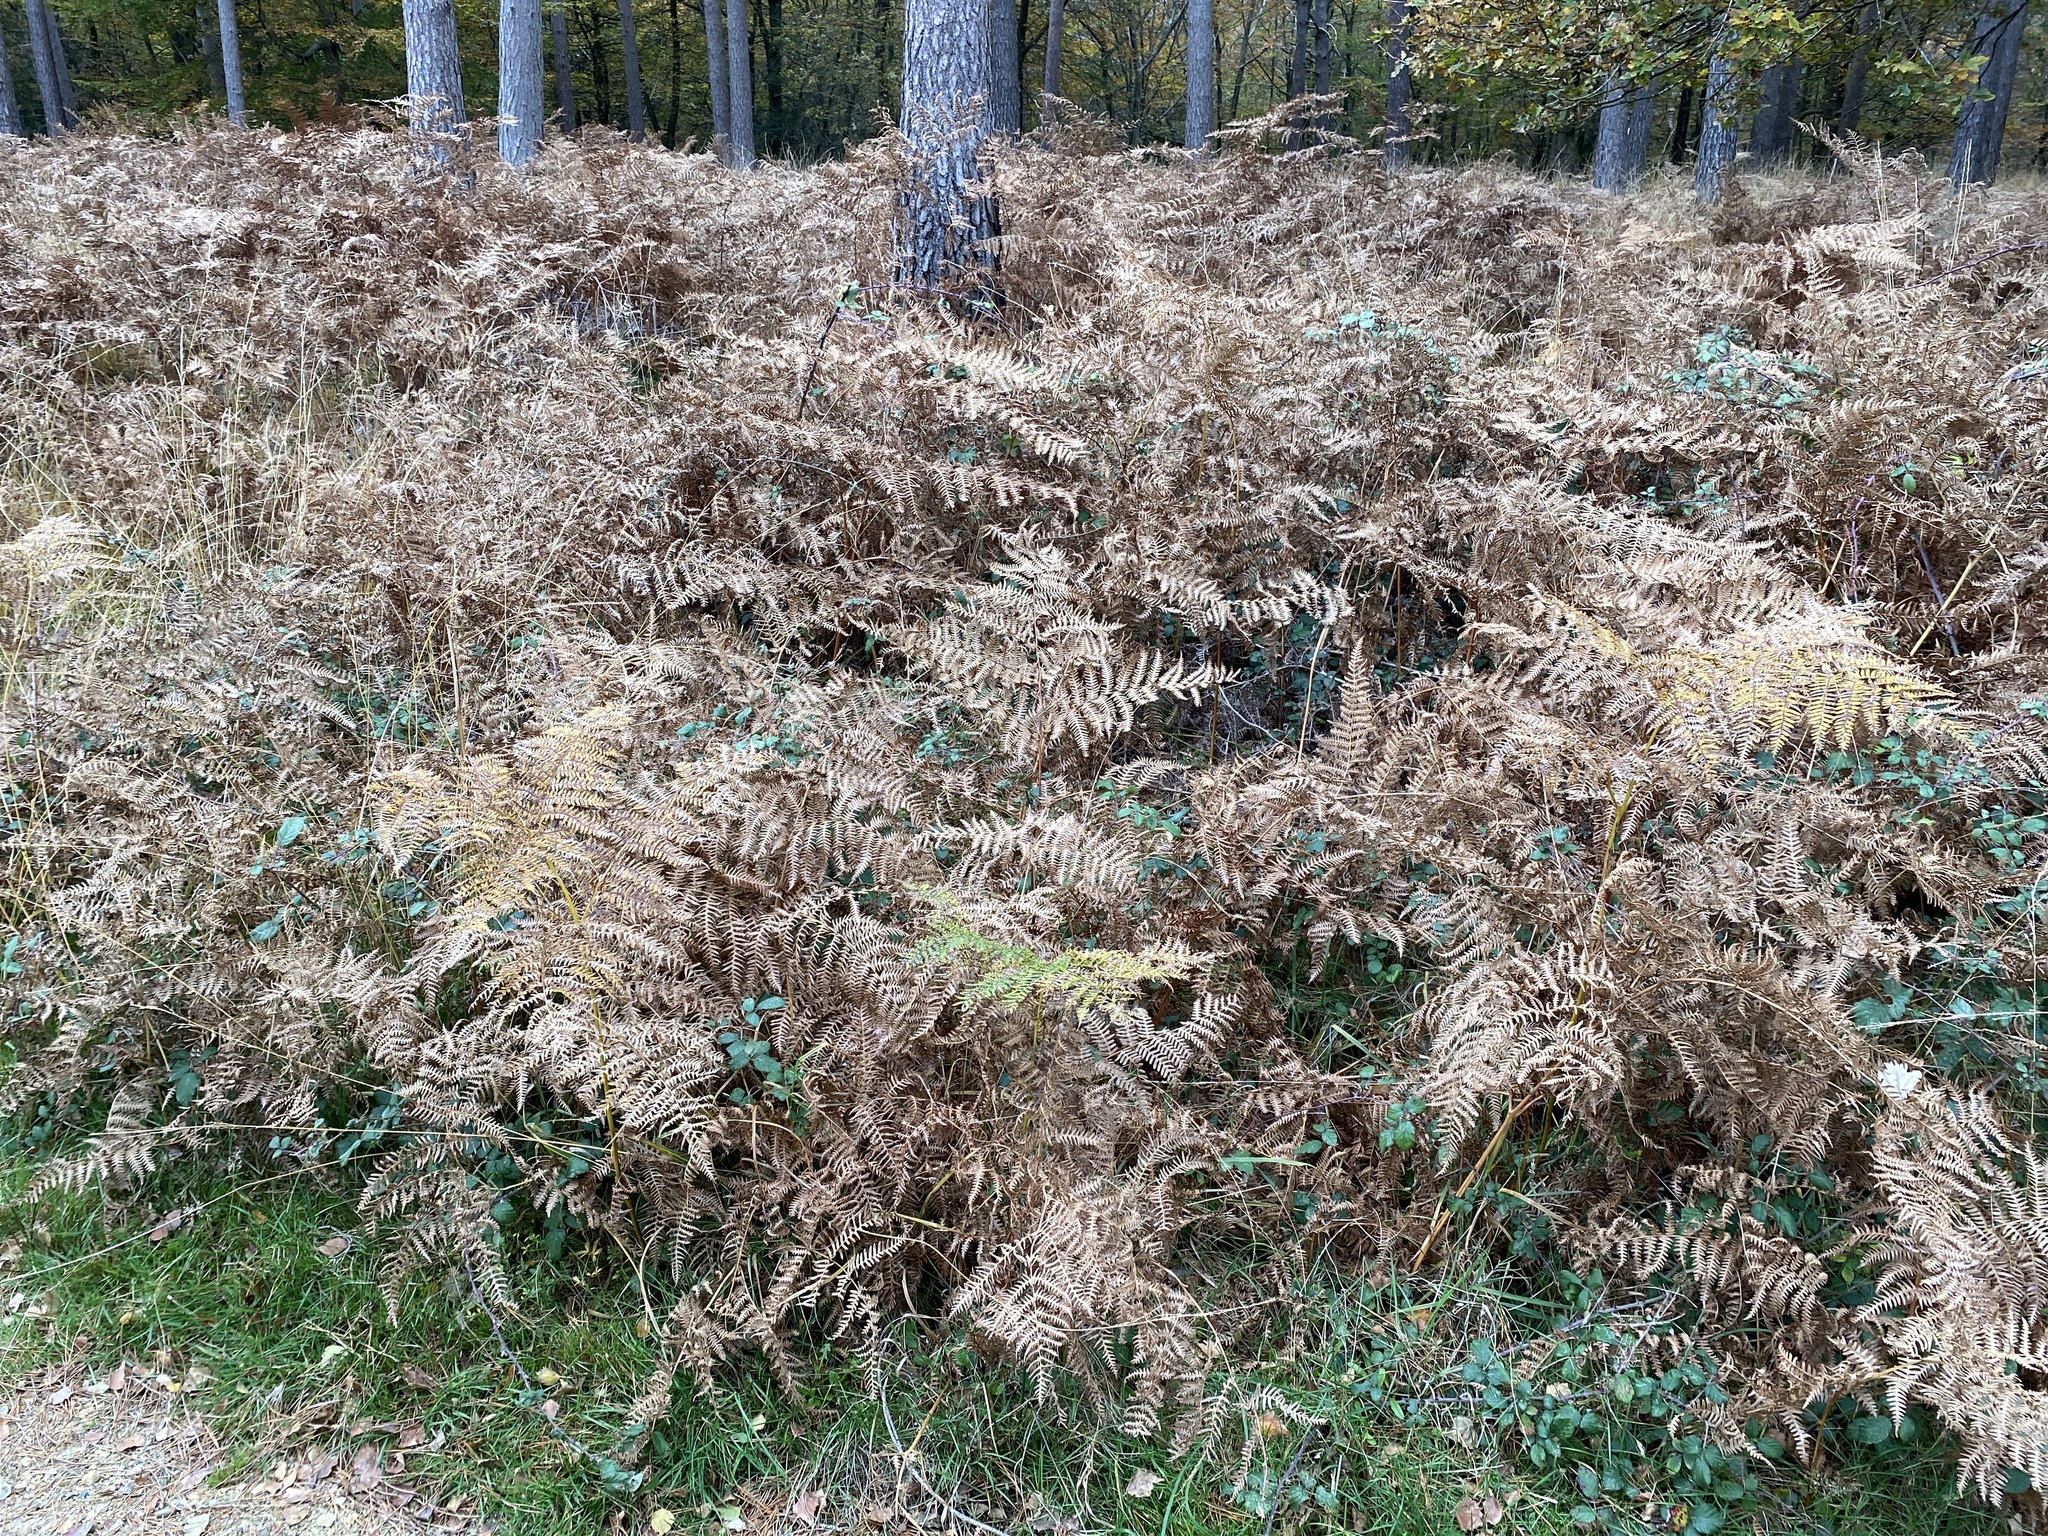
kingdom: Plantae
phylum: Tracheophyta
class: Polypodiopsida
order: Polypodiales
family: Dennstaedtiaceae
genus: Pteridium
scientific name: Pteridium aquilinum
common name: Bracken
